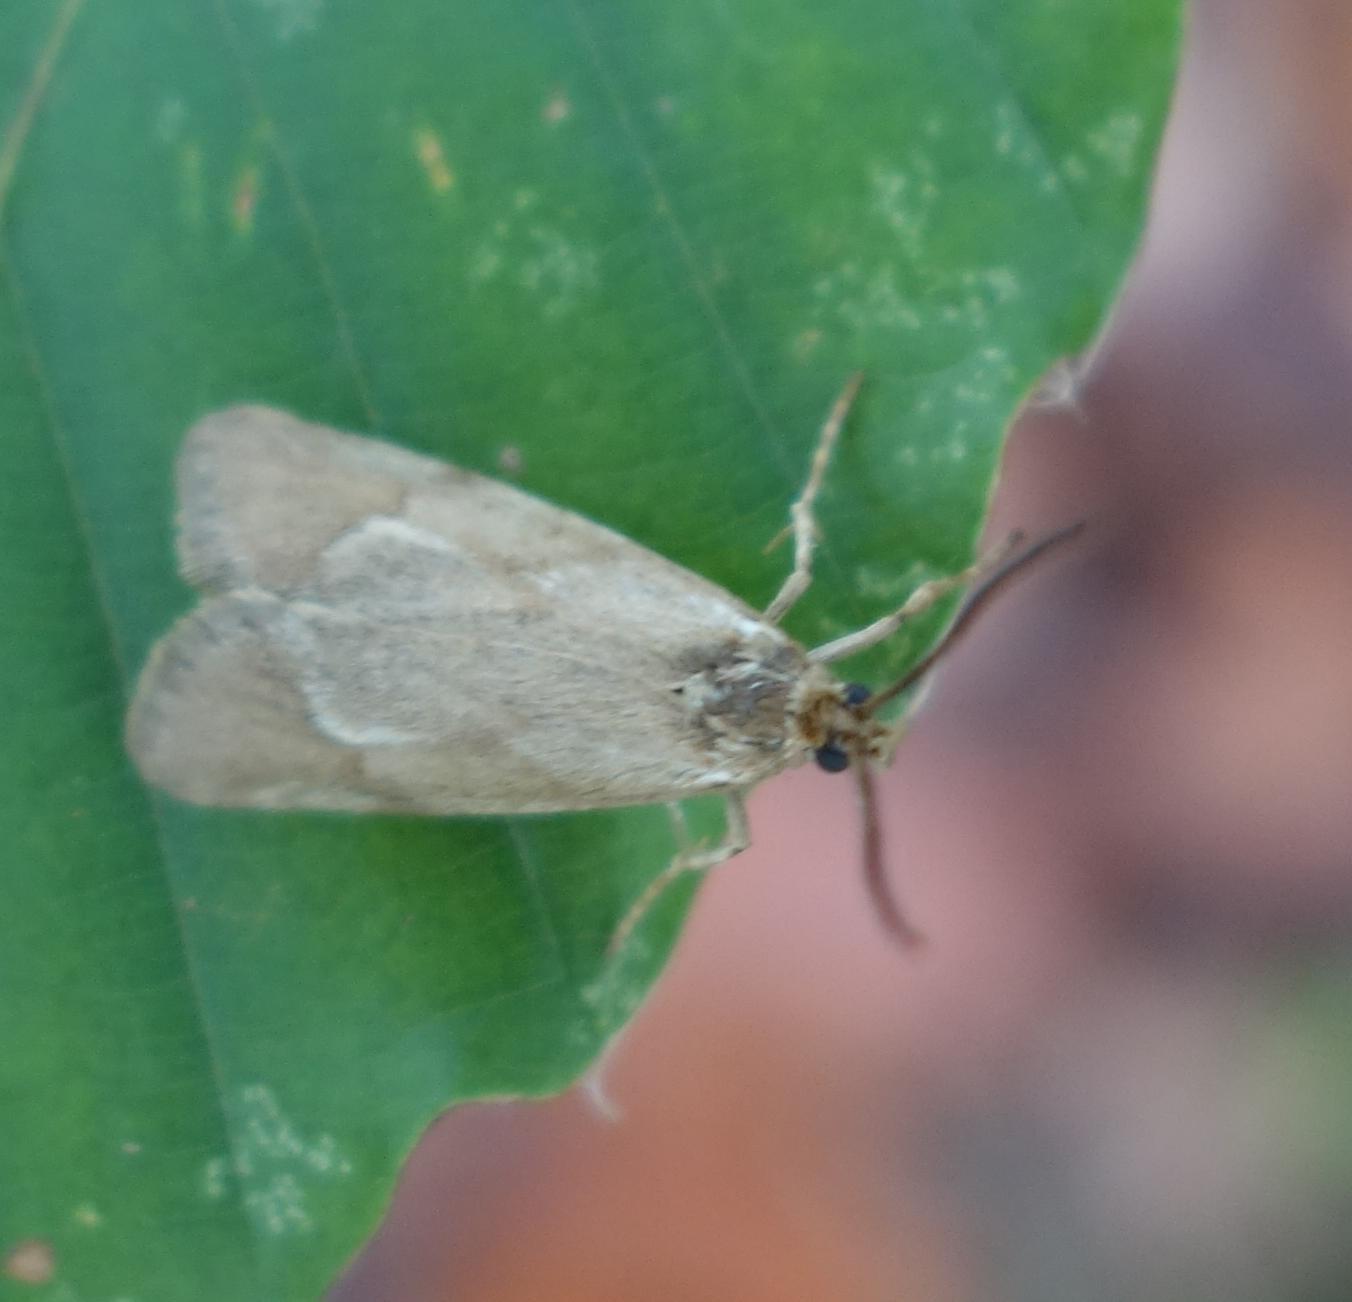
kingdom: Animalia
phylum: Arthropoda
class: Insecta
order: Lepidoptera
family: Lypusidae
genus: Diurnea
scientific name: Diurnea lipsiella
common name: November tubic
